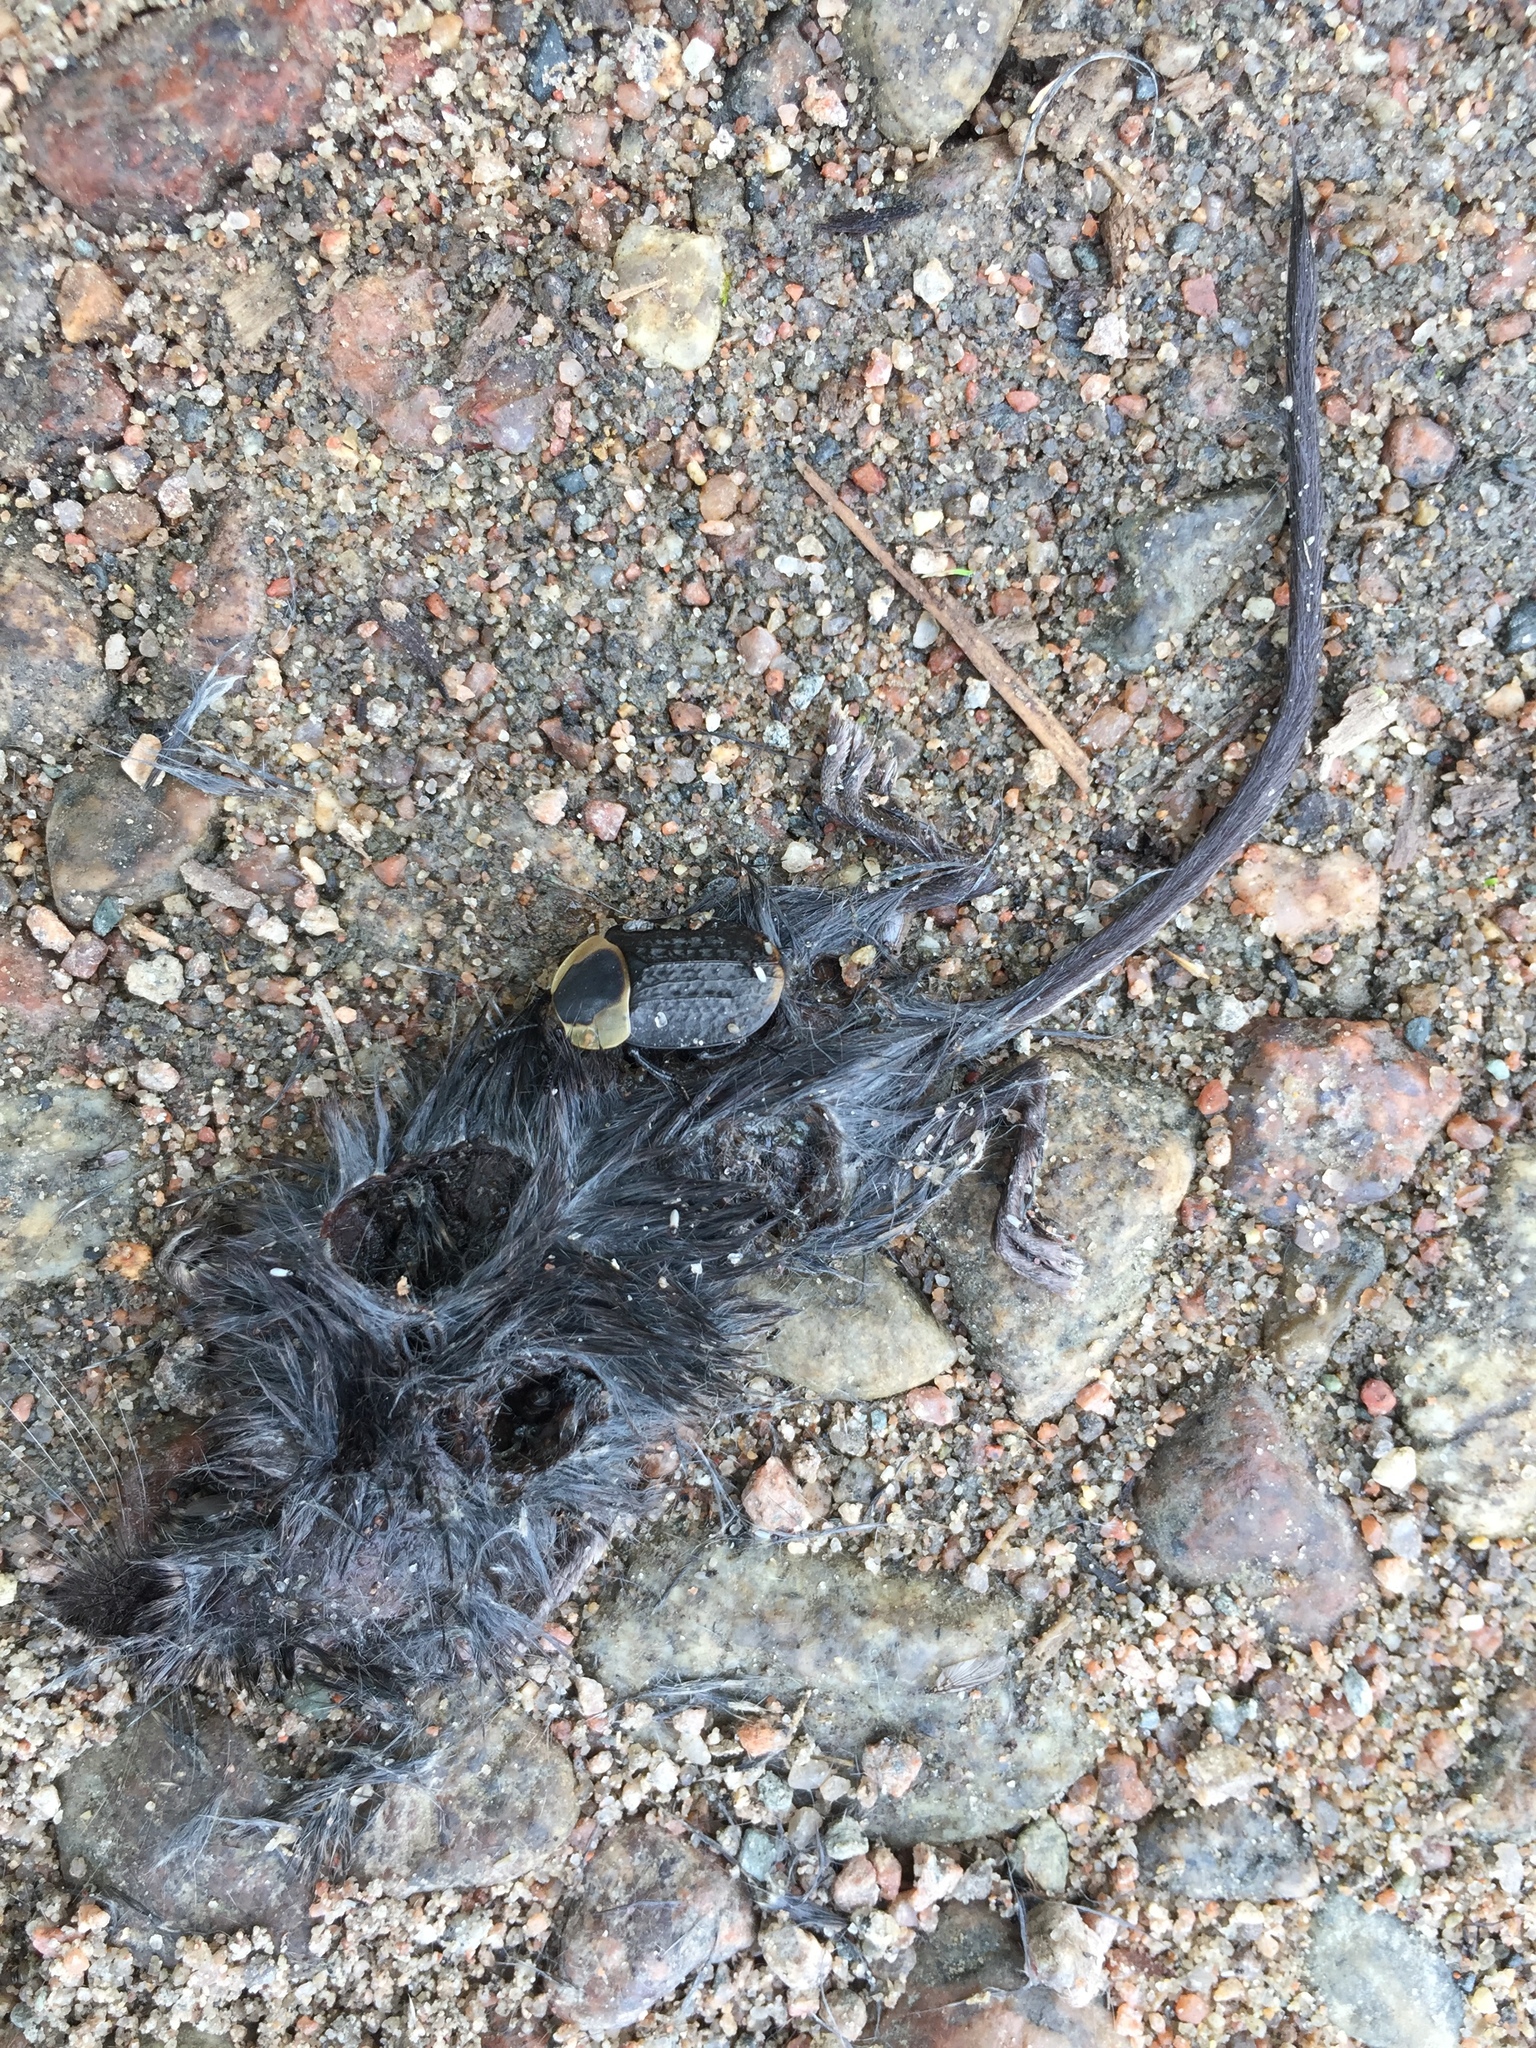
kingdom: Animalia
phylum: Chordata
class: Mammalia
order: Rodentia
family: Cricetidae
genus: Peromyscus
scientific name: Peromyscus maniculatus
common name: Deer mouse
